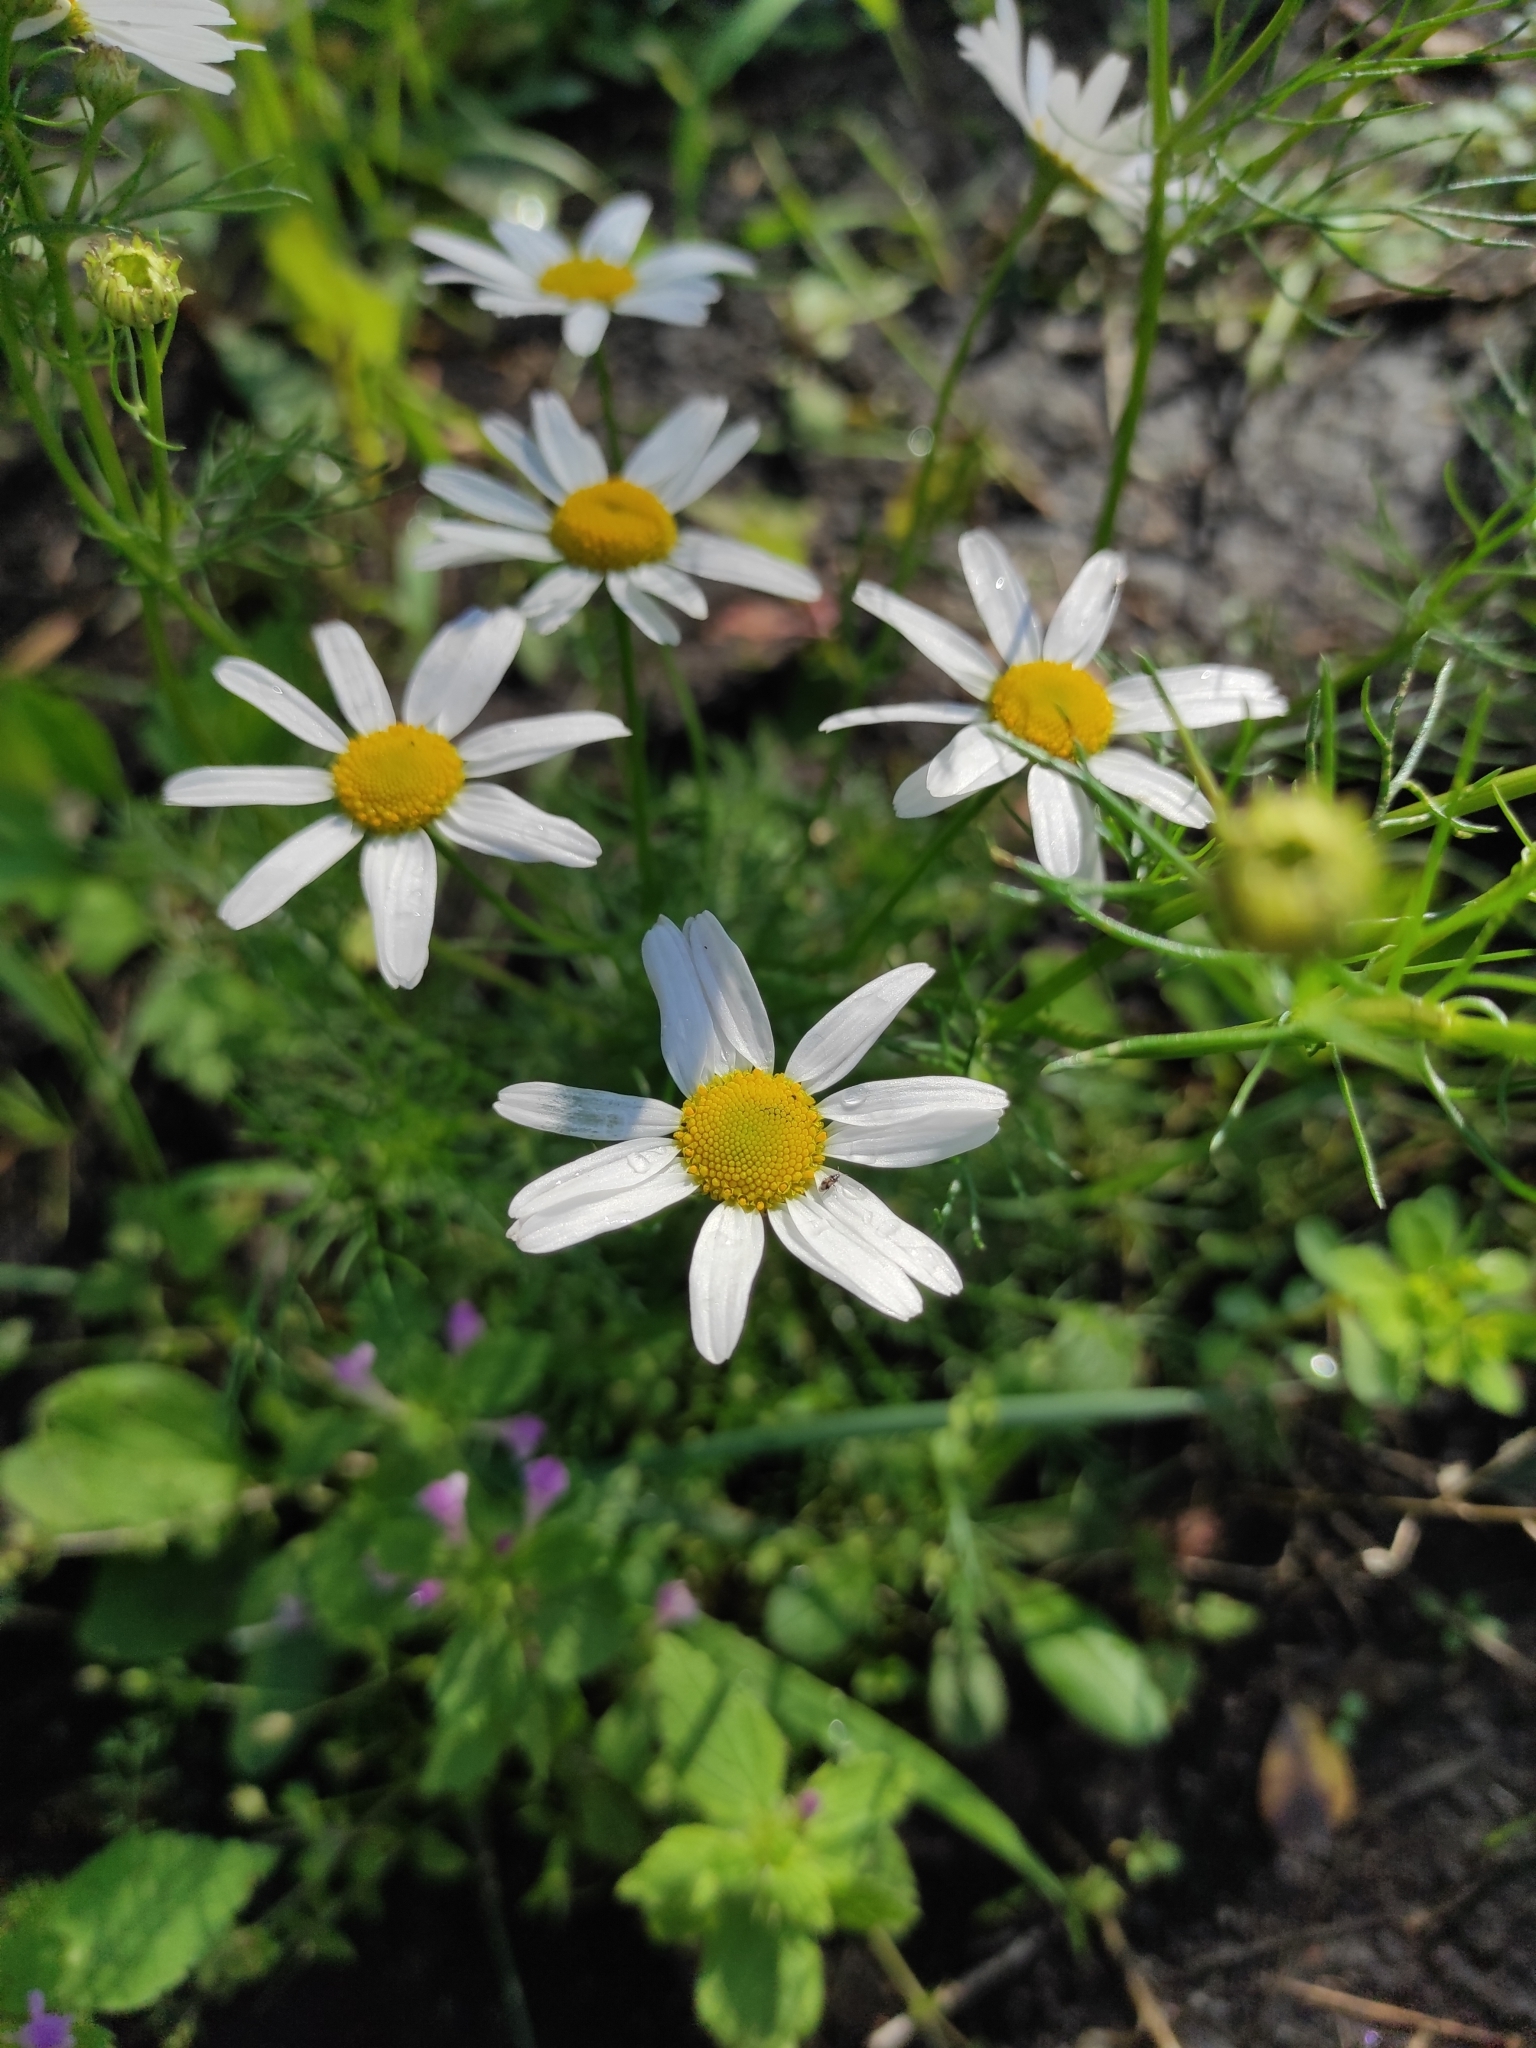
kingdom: Plantae
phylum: Tracheophyta
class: Magnoliopsida
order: Asterales
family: Asteraceae
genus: Tripleurospermum
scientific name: Tripleurospermum inodorum
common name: Scentless mayweed
